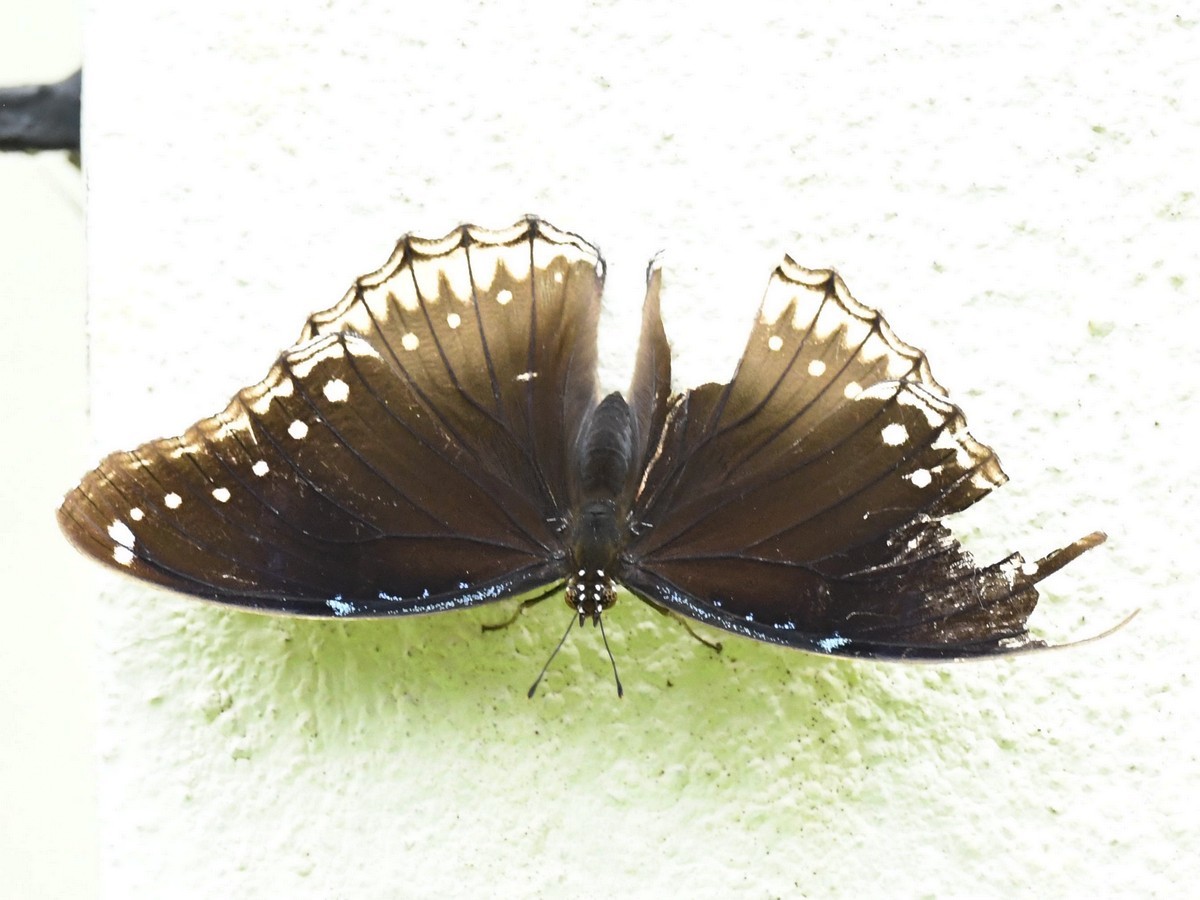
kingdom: Animalia
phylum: Arthropoda
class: Insecta
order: Lepidoptera
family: Nymphalidae
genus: Hypolimnas
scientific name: Hypolimnas bolina
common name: Great eggfly
